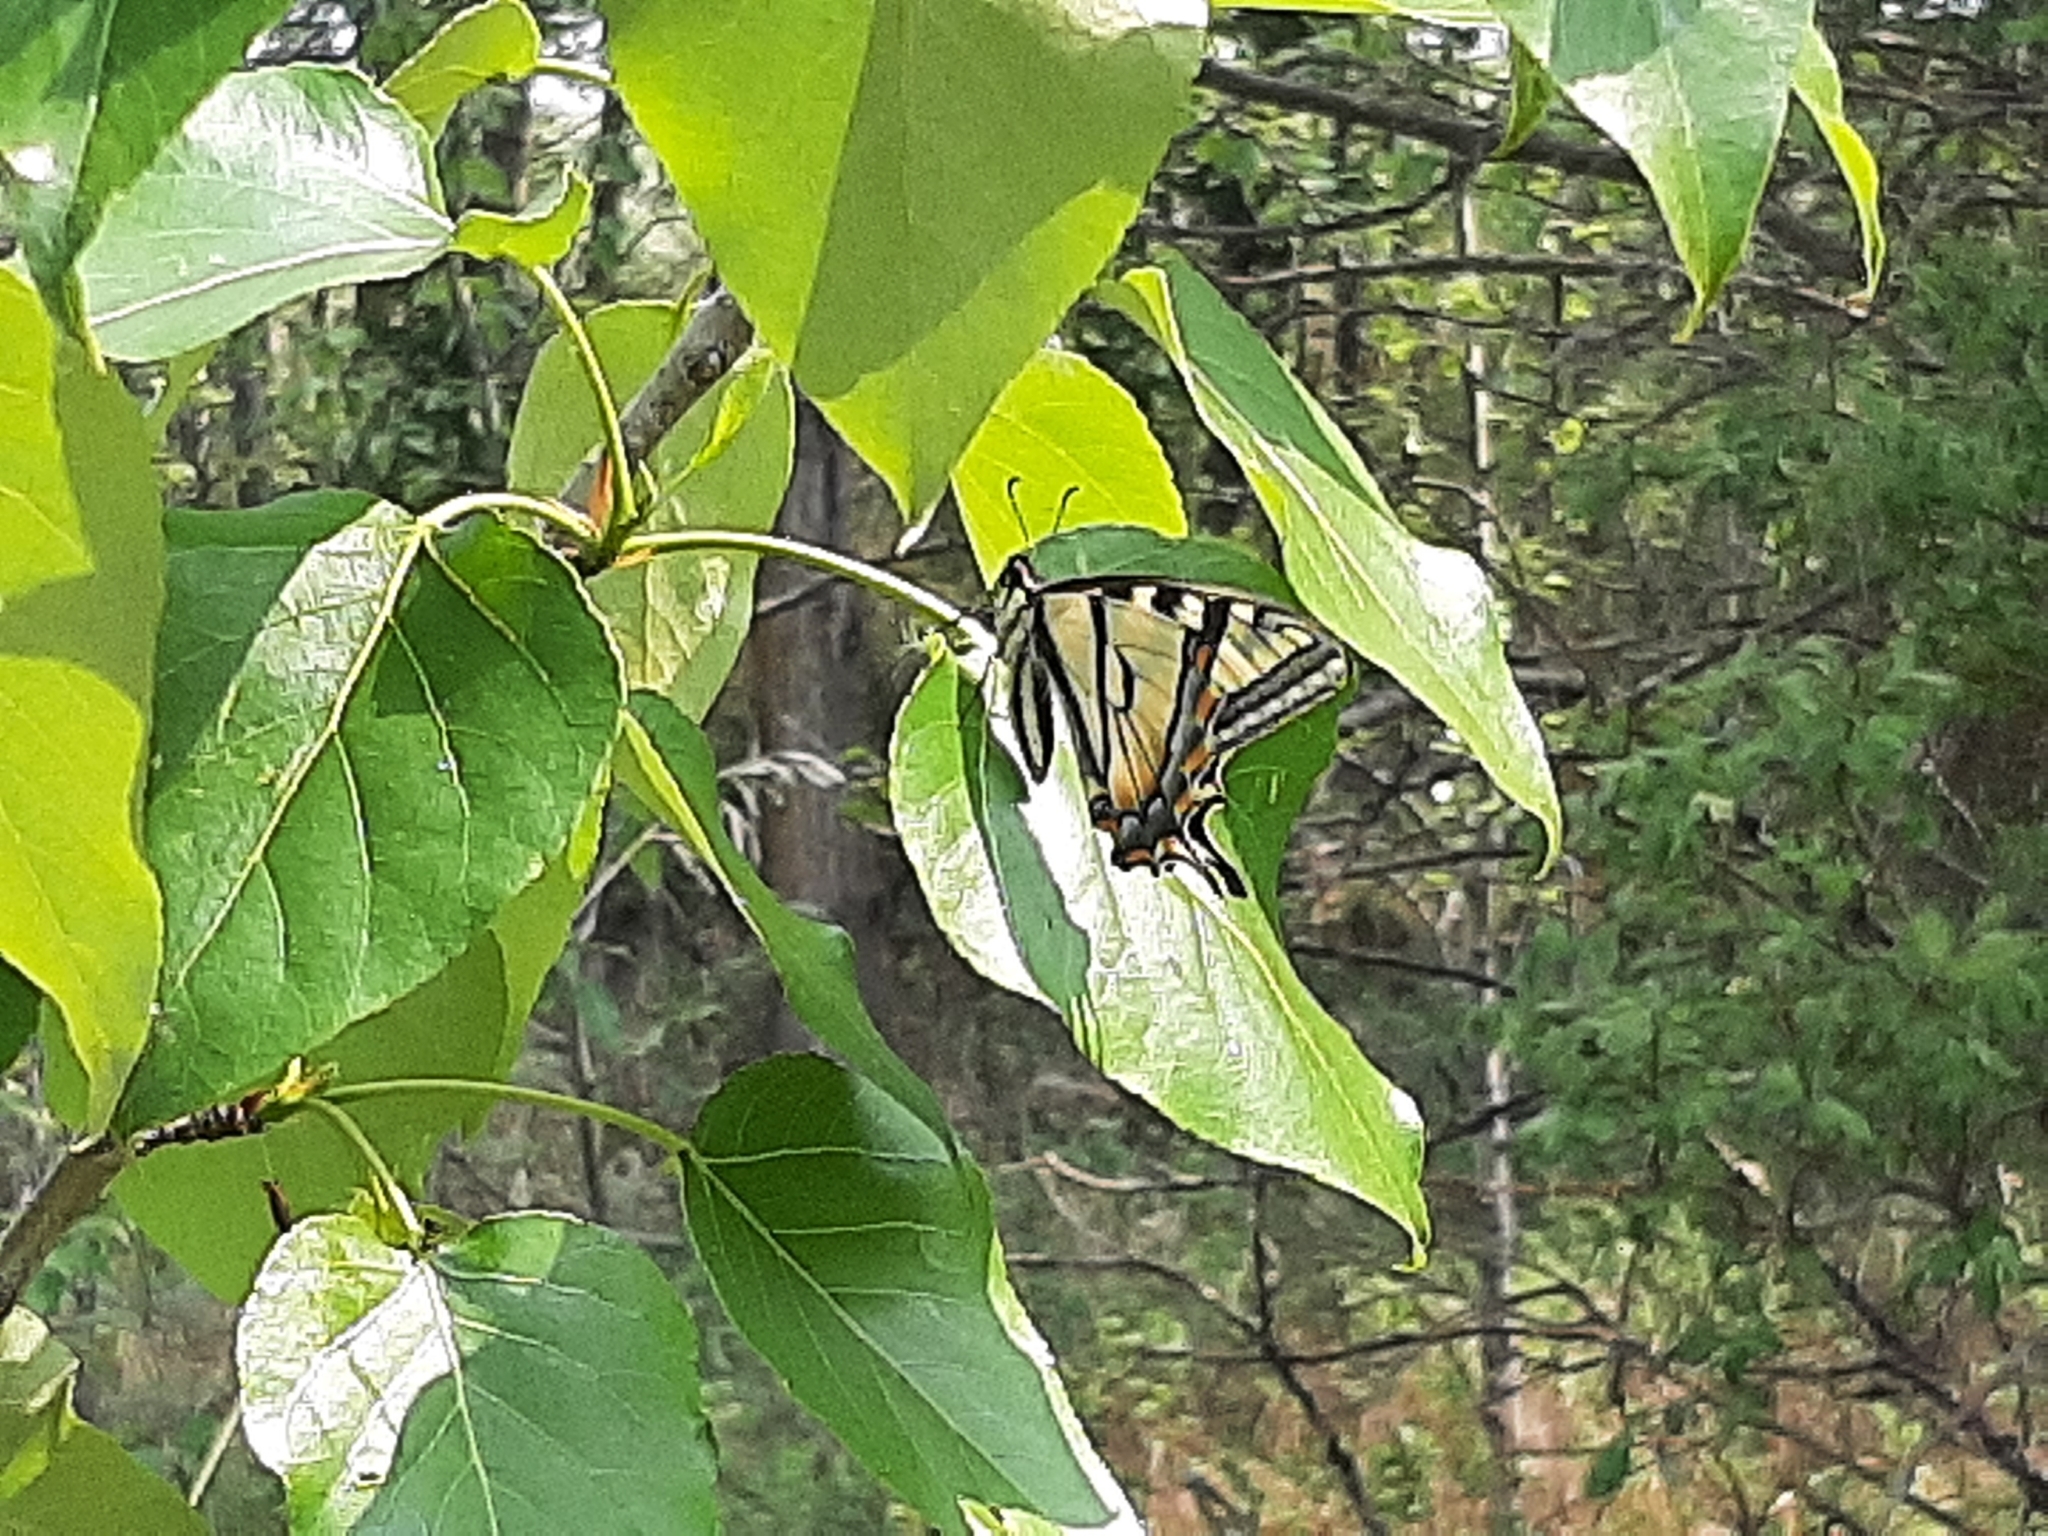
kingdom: Animalia
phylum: Arthropoda
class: Insecta
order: Lepidoptera
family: Papilionidae
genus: Papilio
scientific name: Papilio canadensis
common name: Canadian tiger swallowtail
